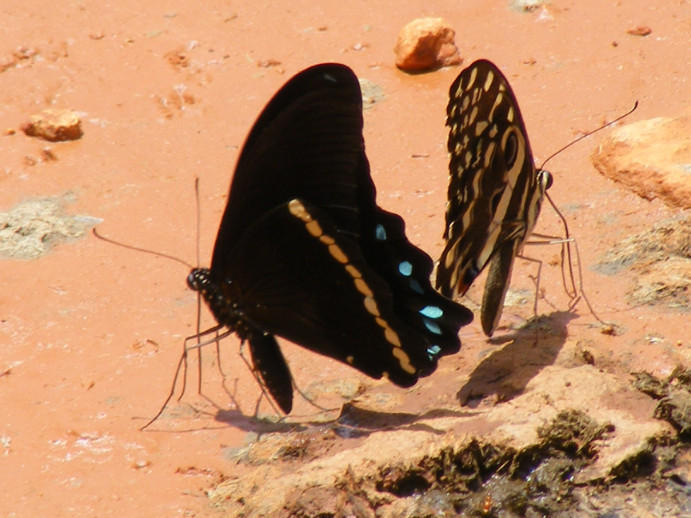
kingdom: Animalia
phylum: Arthropoda
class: Insecta
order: Lepidoptera
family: Papilionidae
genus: Papilio
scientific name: Papilio nireus
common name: Greenbanded swallowtail
